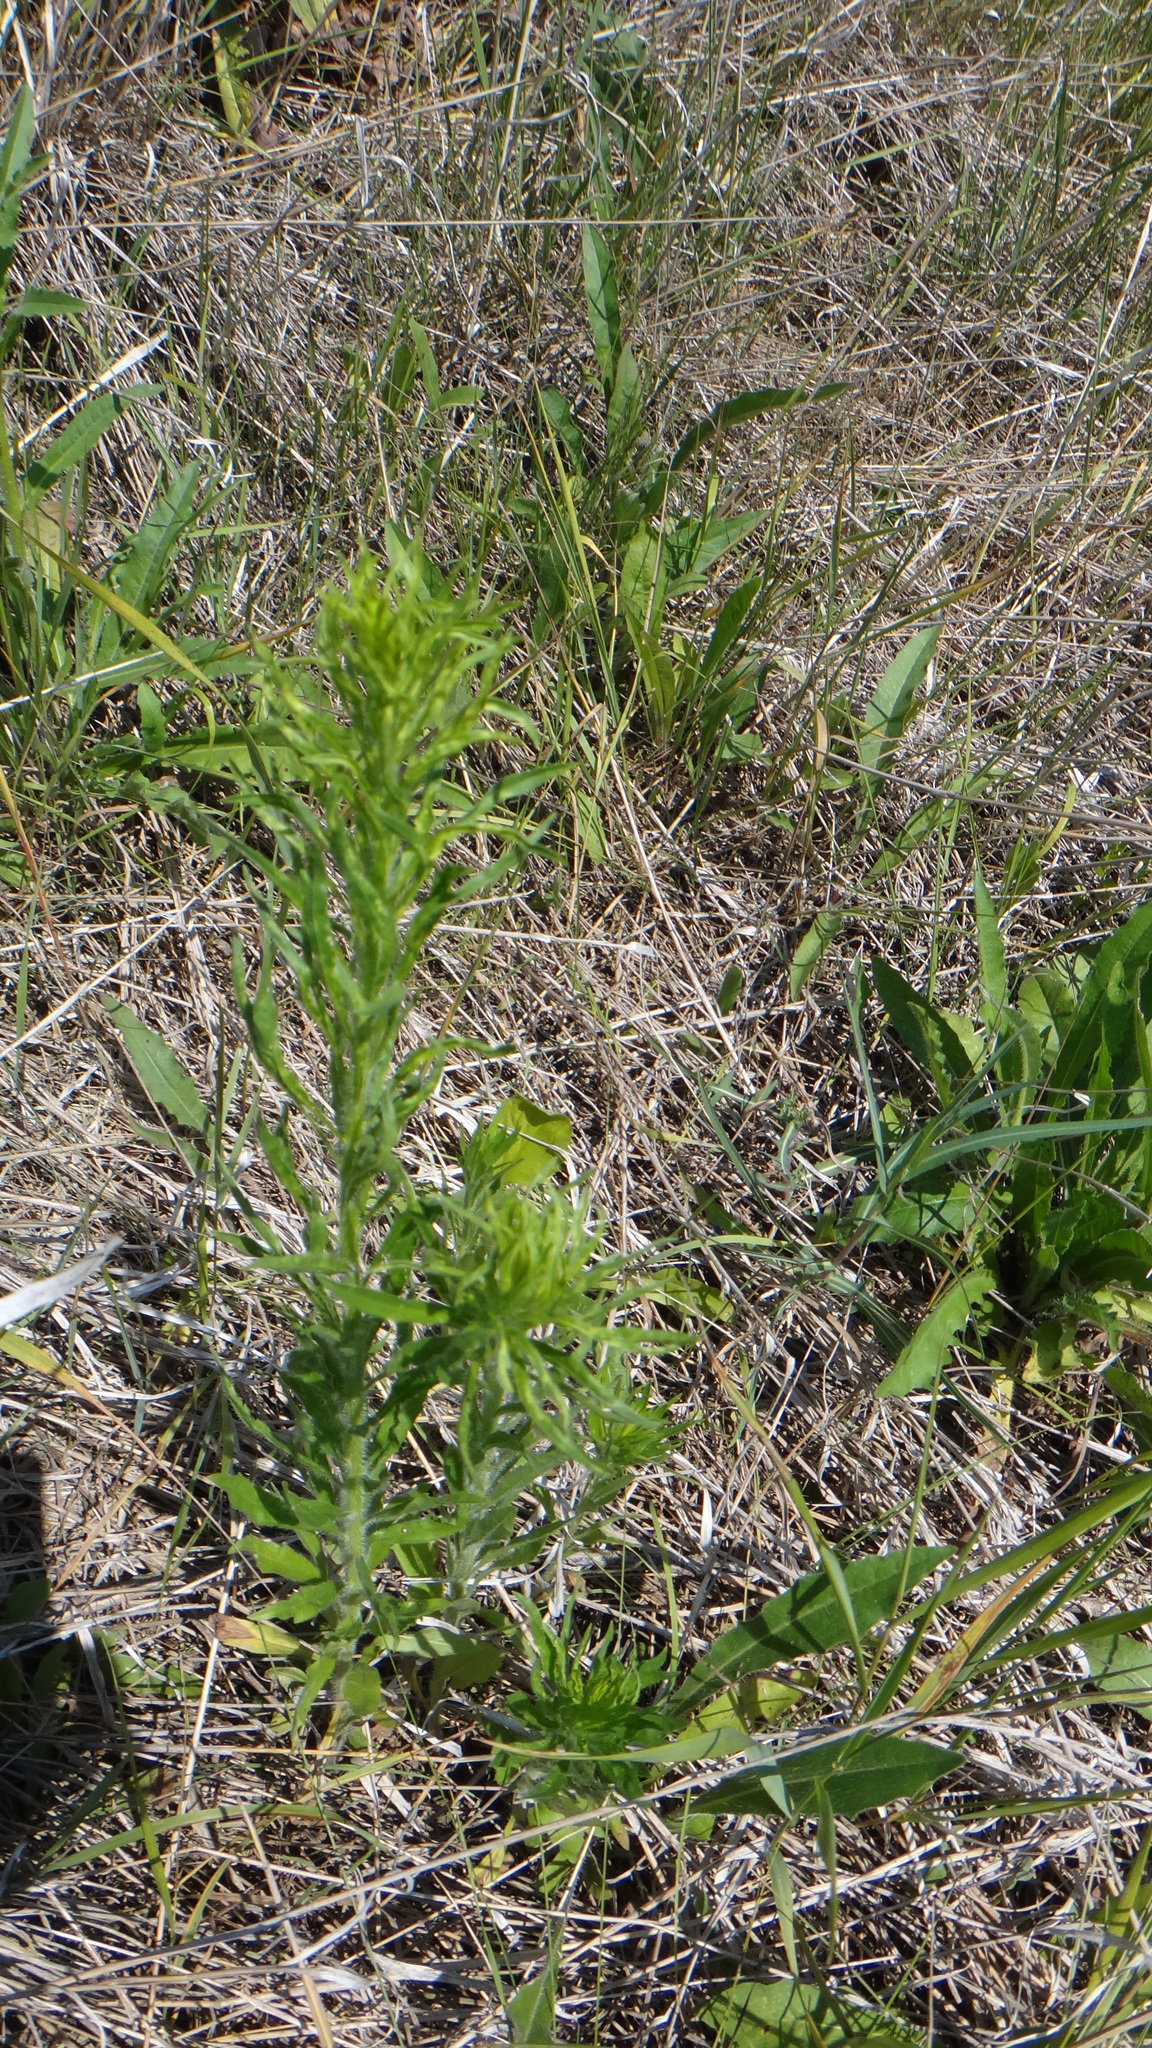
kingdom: Plantae
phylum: Tracheophyta
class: Magnoliopsida
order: Asterales
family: Asteraceae
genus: Erigeron
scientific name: Erigeron canadensis
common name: Canadian fleabane
